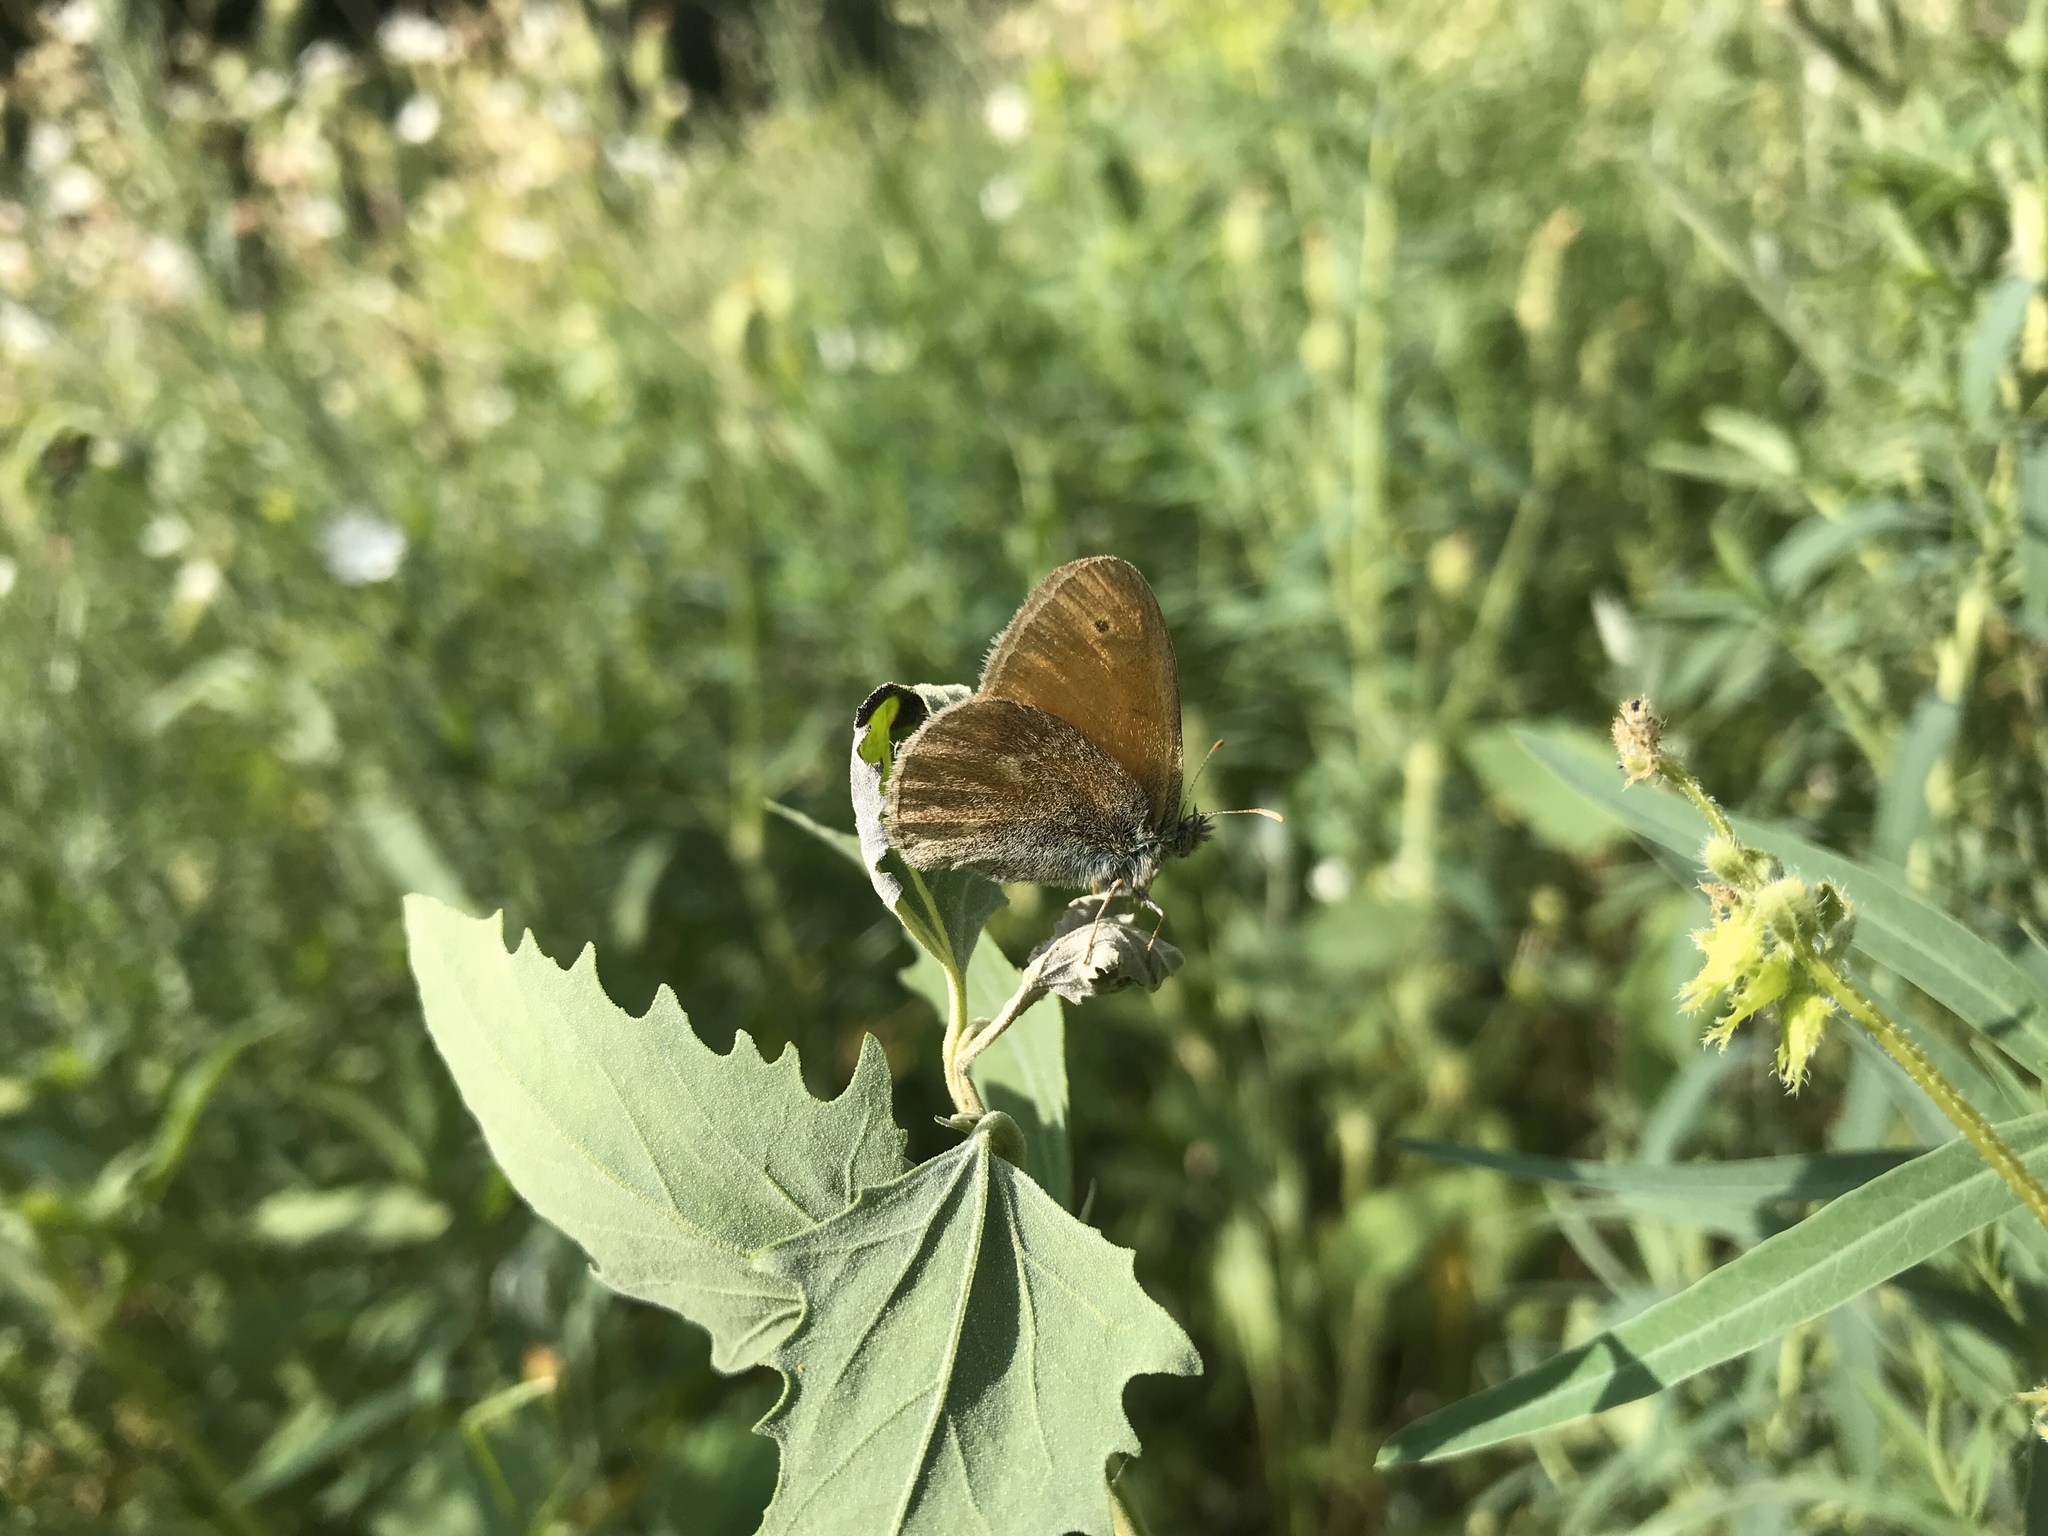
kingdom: Animalia
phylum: Arthropoda
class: Insecta
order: Lepidoptera
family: Nymphalidae
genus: Coenonympha
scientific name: Coenonympha california
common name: Common ringlet
